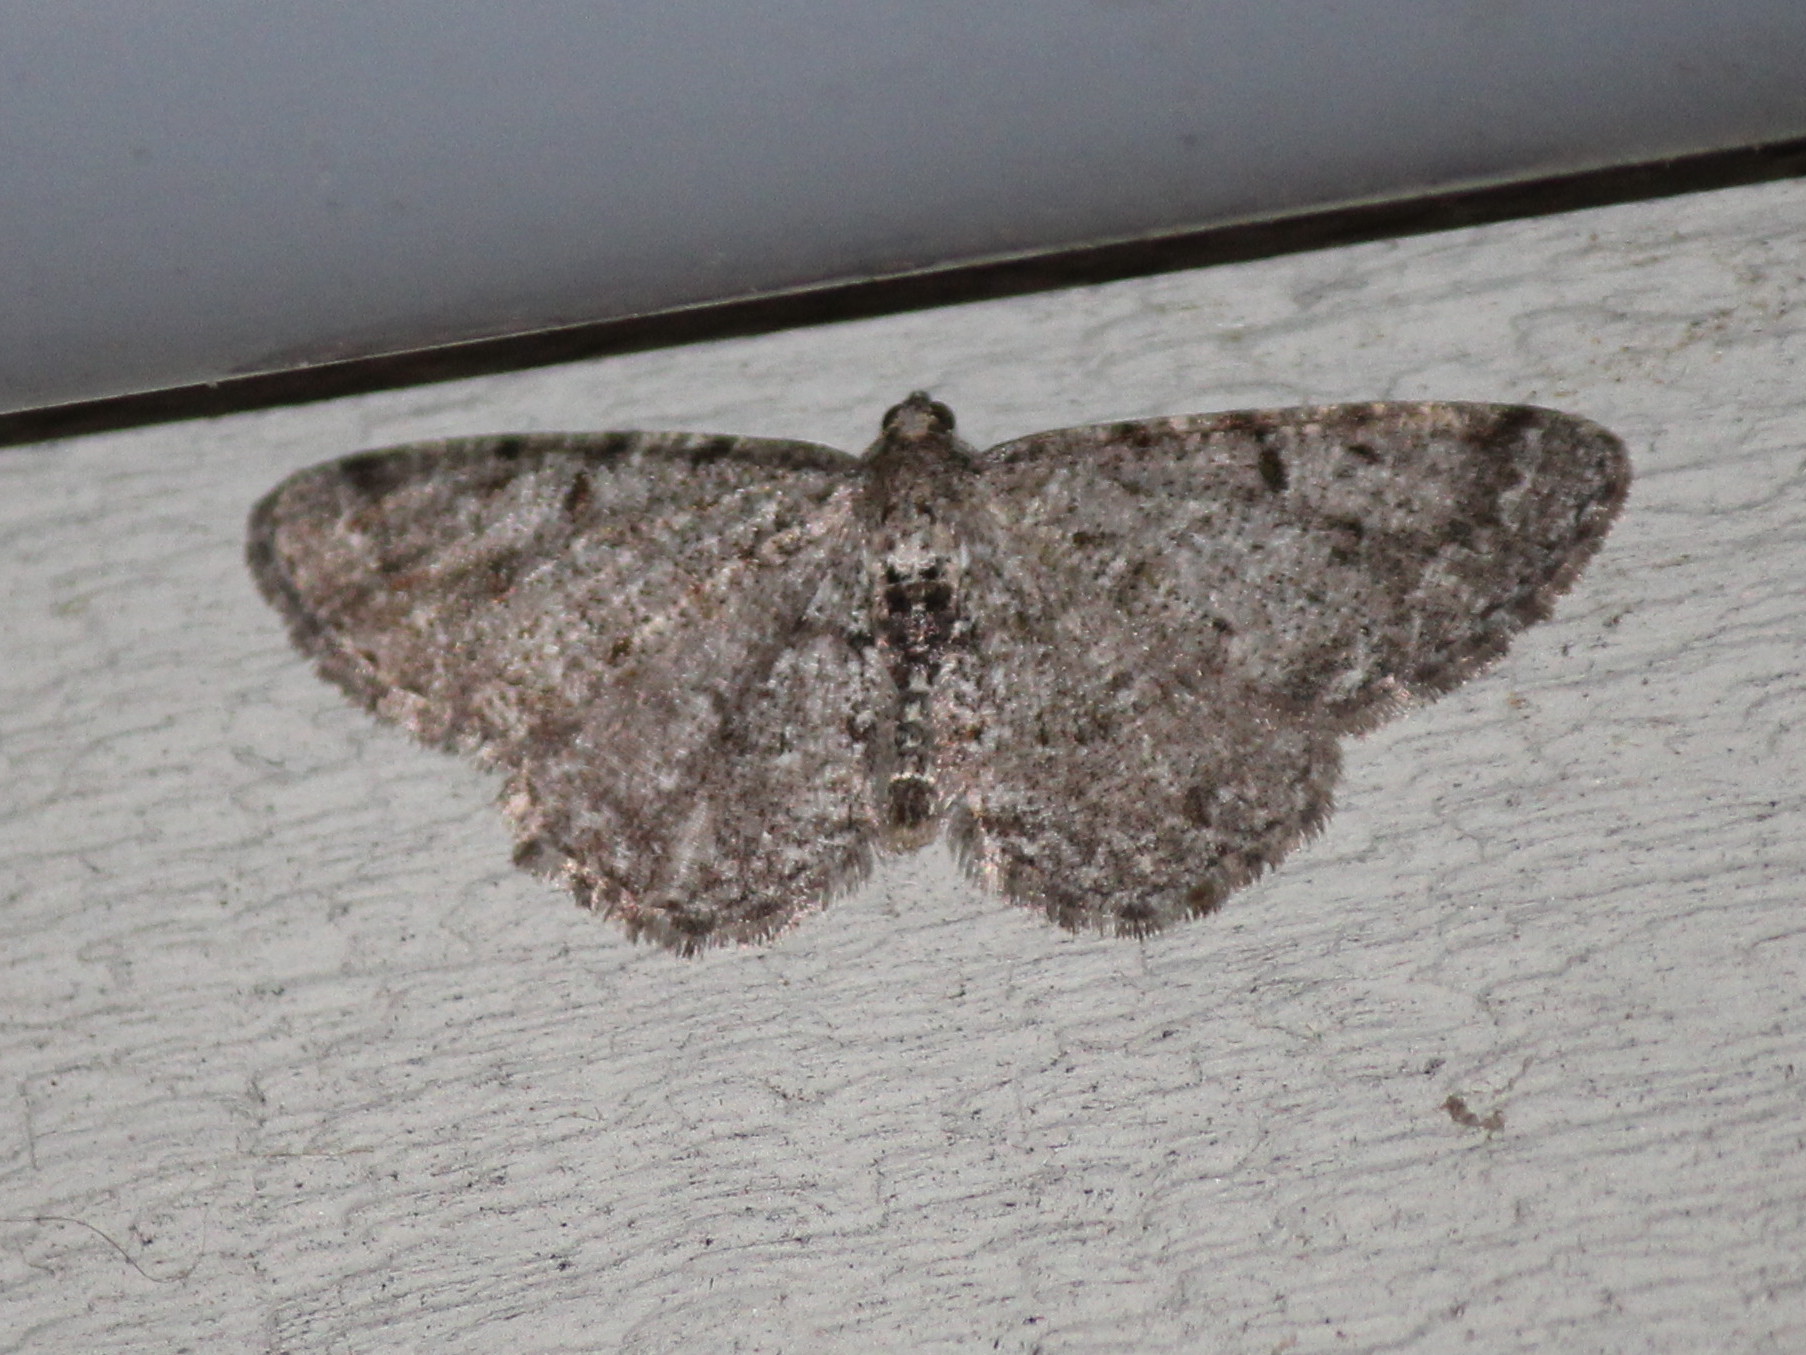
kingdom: Animalia
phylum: Arthropoda
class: Insecta
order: Lepidoptera
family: Geometridae
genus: Aethalura
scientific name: Aethalura intertexta
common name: Four-barred gray
